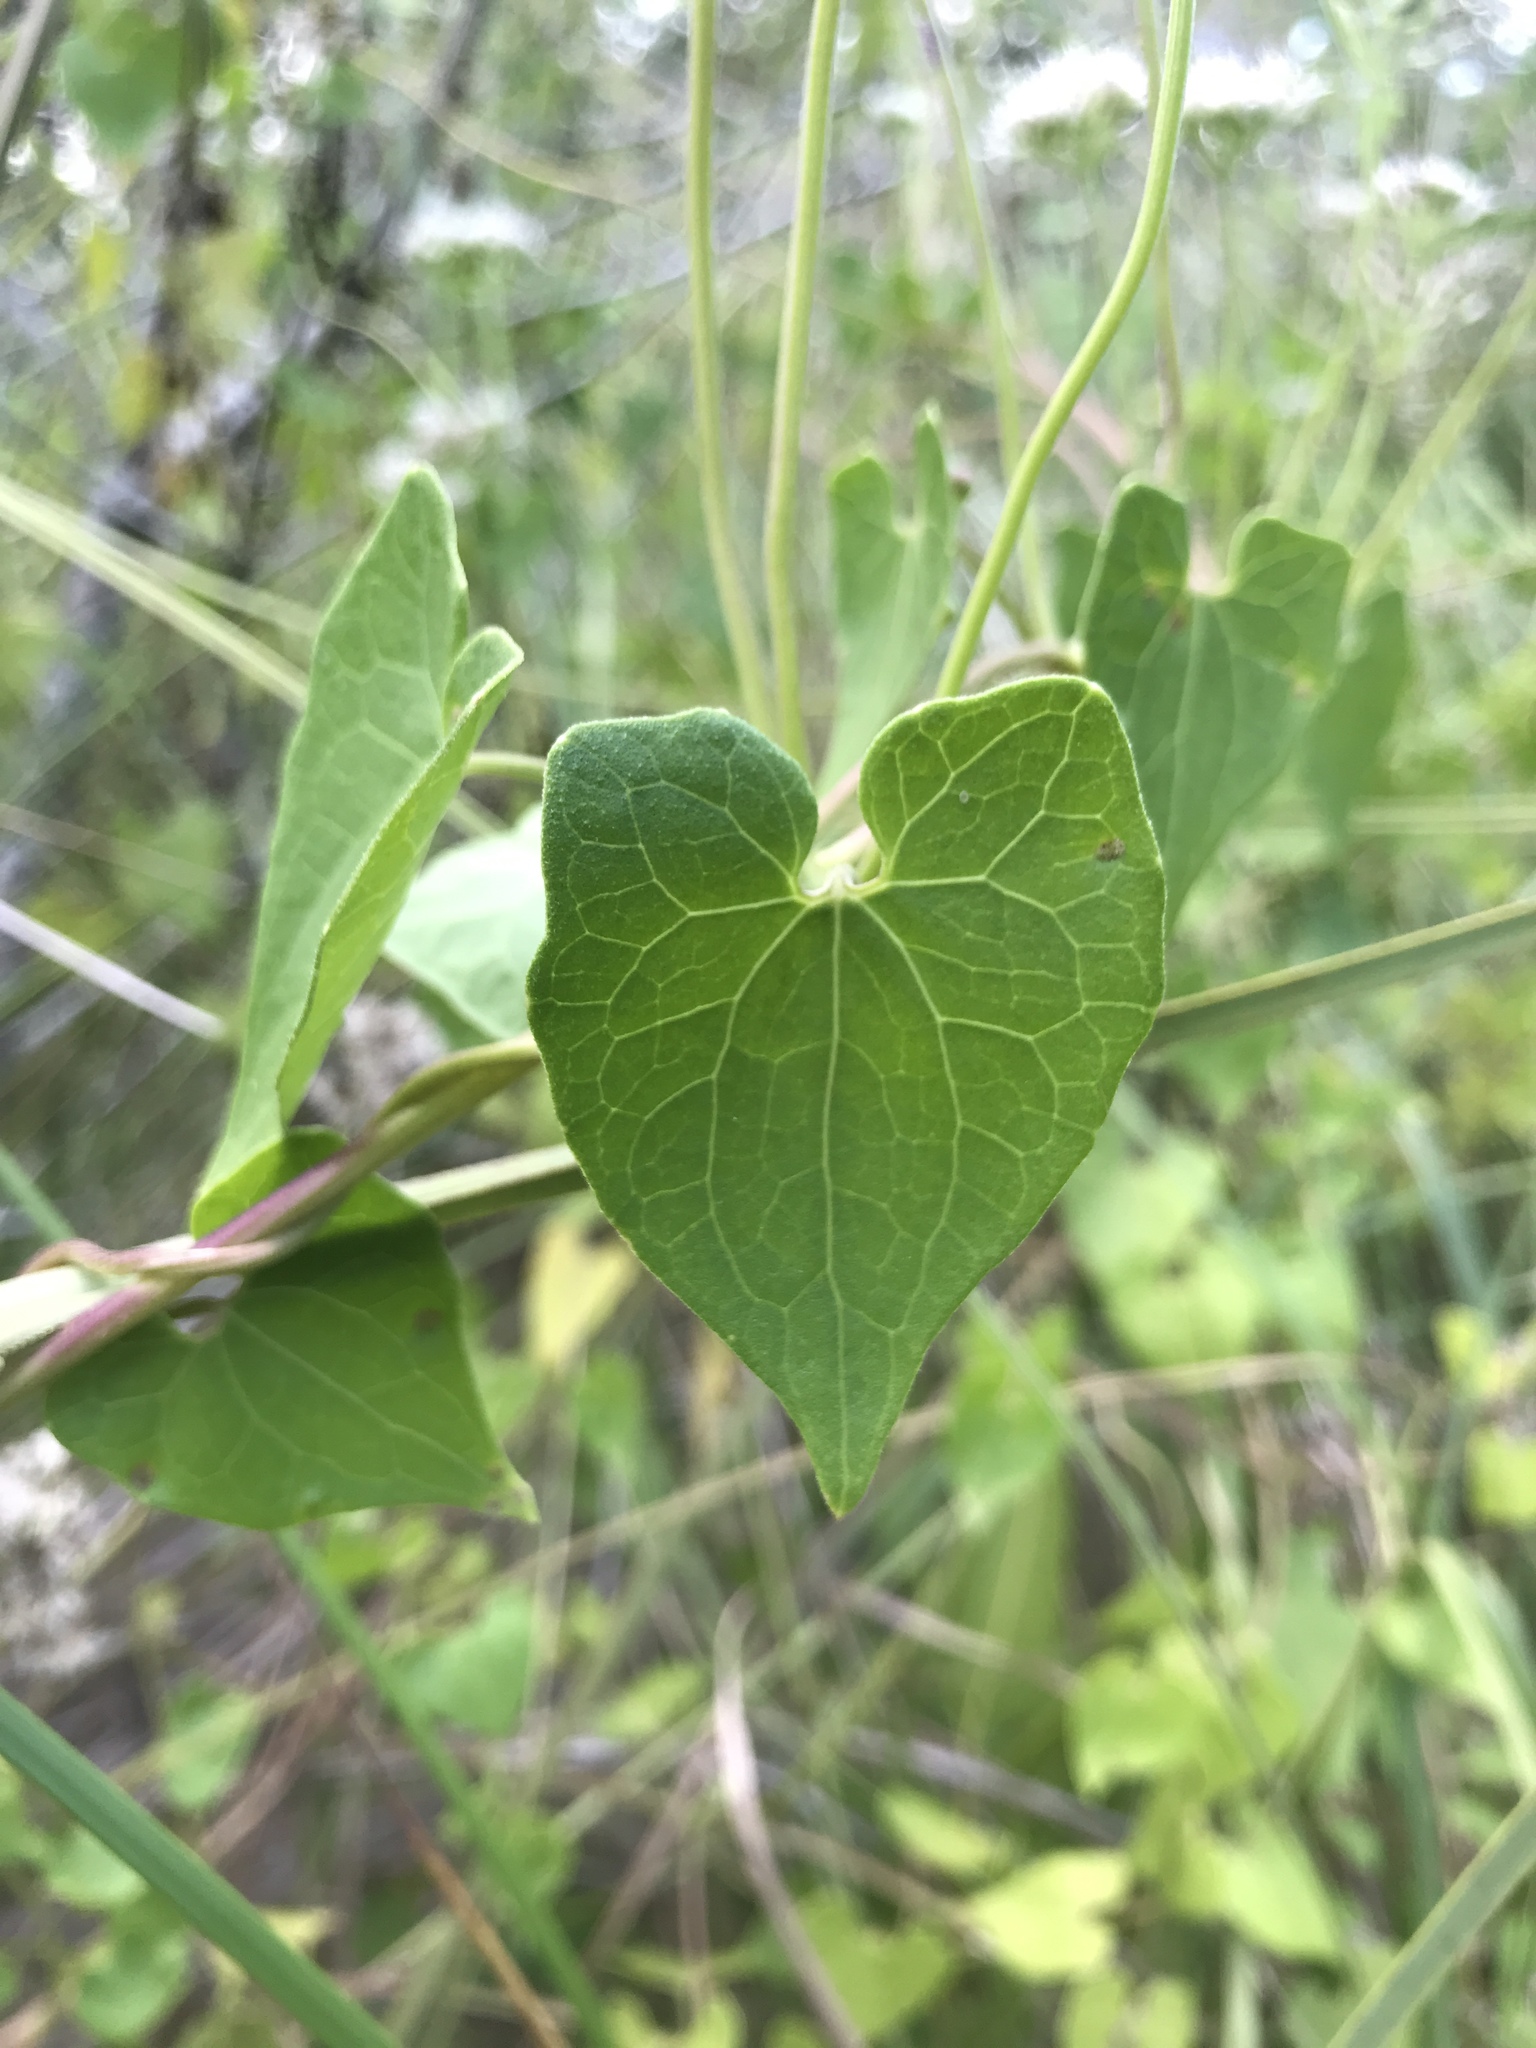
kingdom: Plantae
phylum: Tracheophyta
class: Magnoliopsida
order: Asterales
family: Asteraceae
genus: Mikania
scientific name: Mikania scandens
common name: Climbing hempvine
